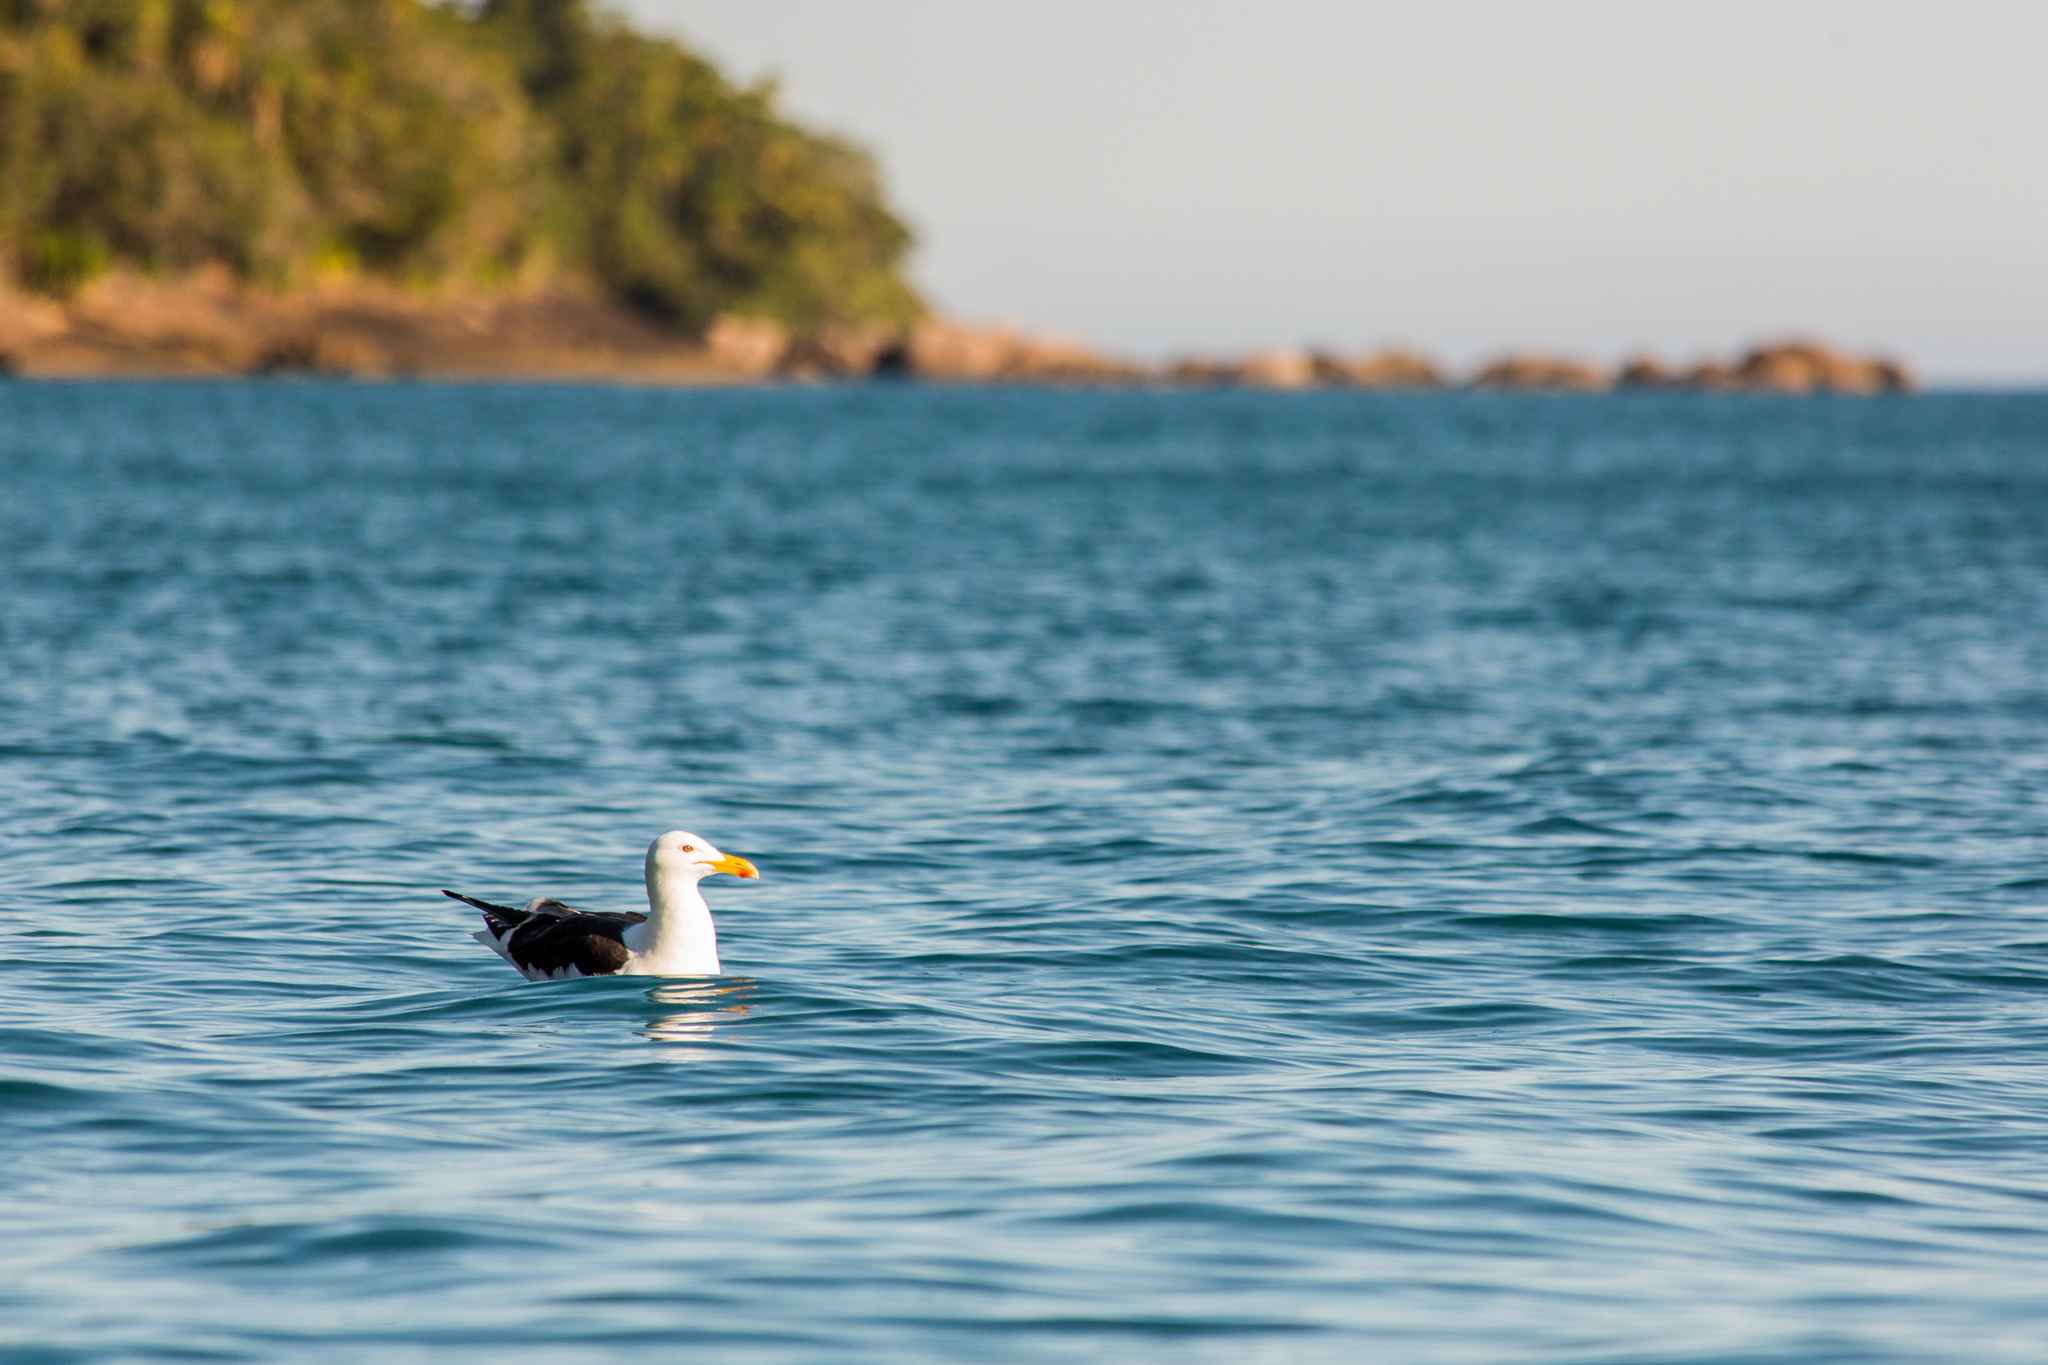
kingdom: Animalia
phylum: Chordata
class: Aves
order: Charadriiformes
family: Laridae
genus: Larus
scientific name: Larus dominicanus
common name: Kelp gull
